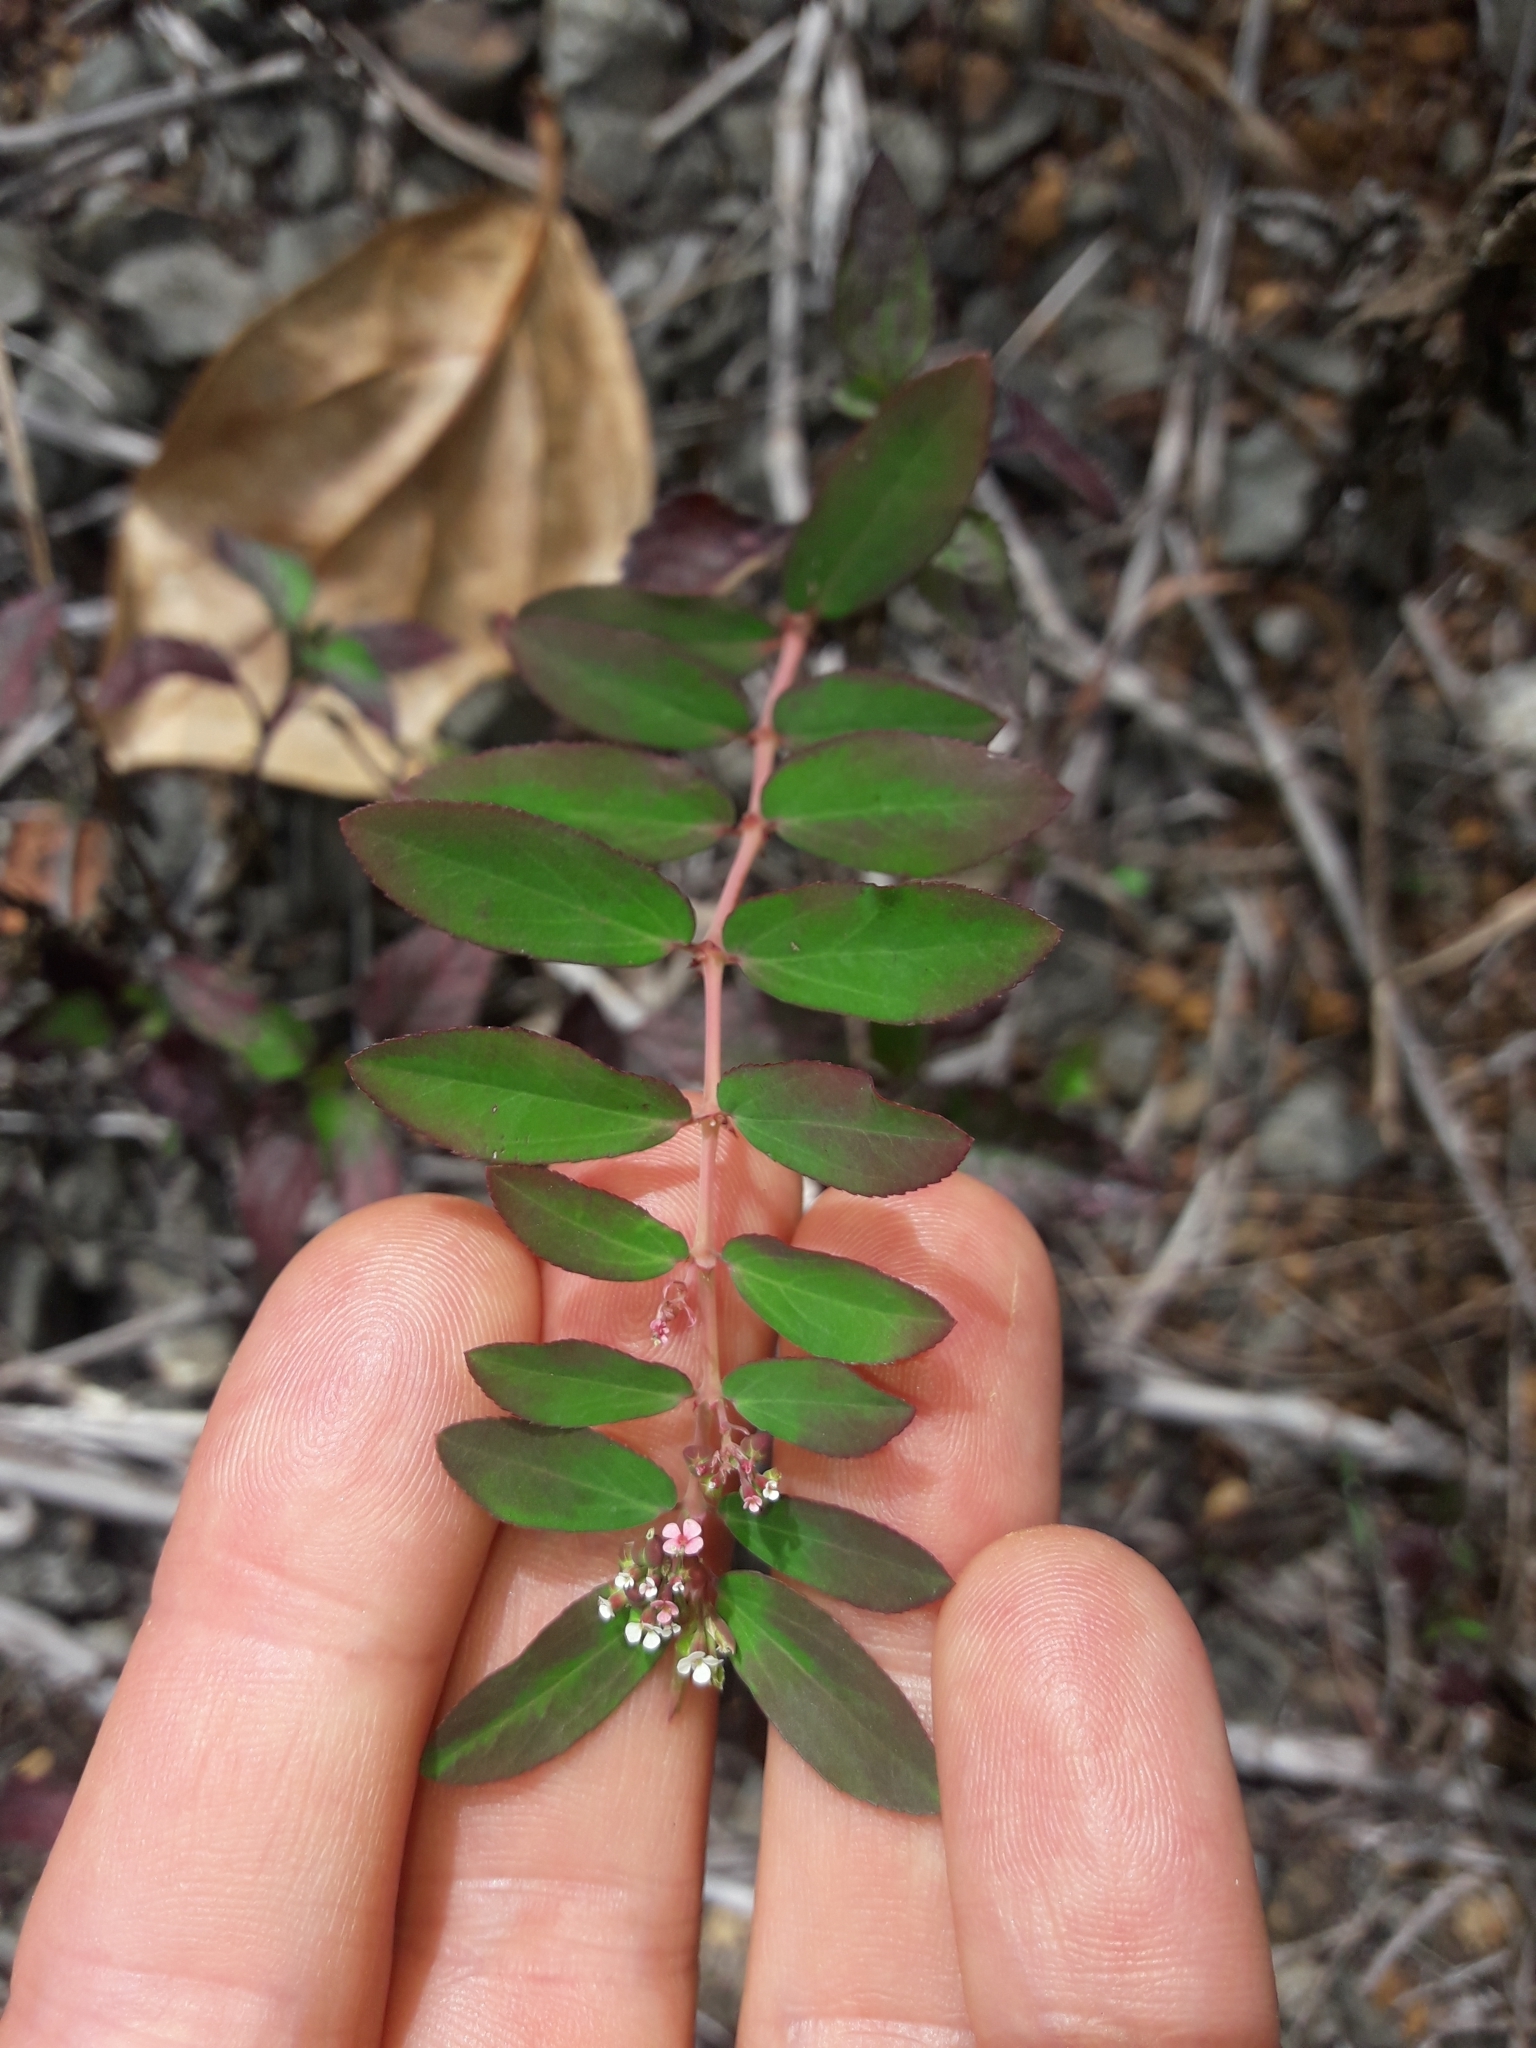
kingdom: Plantae
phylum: Tracheophyta
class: Magnoliopsida
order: Malpighiales
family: Euphorbiaceae
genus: Euphorbia
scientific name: Euphorbia hypericifolia
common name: Graceful sandmat
